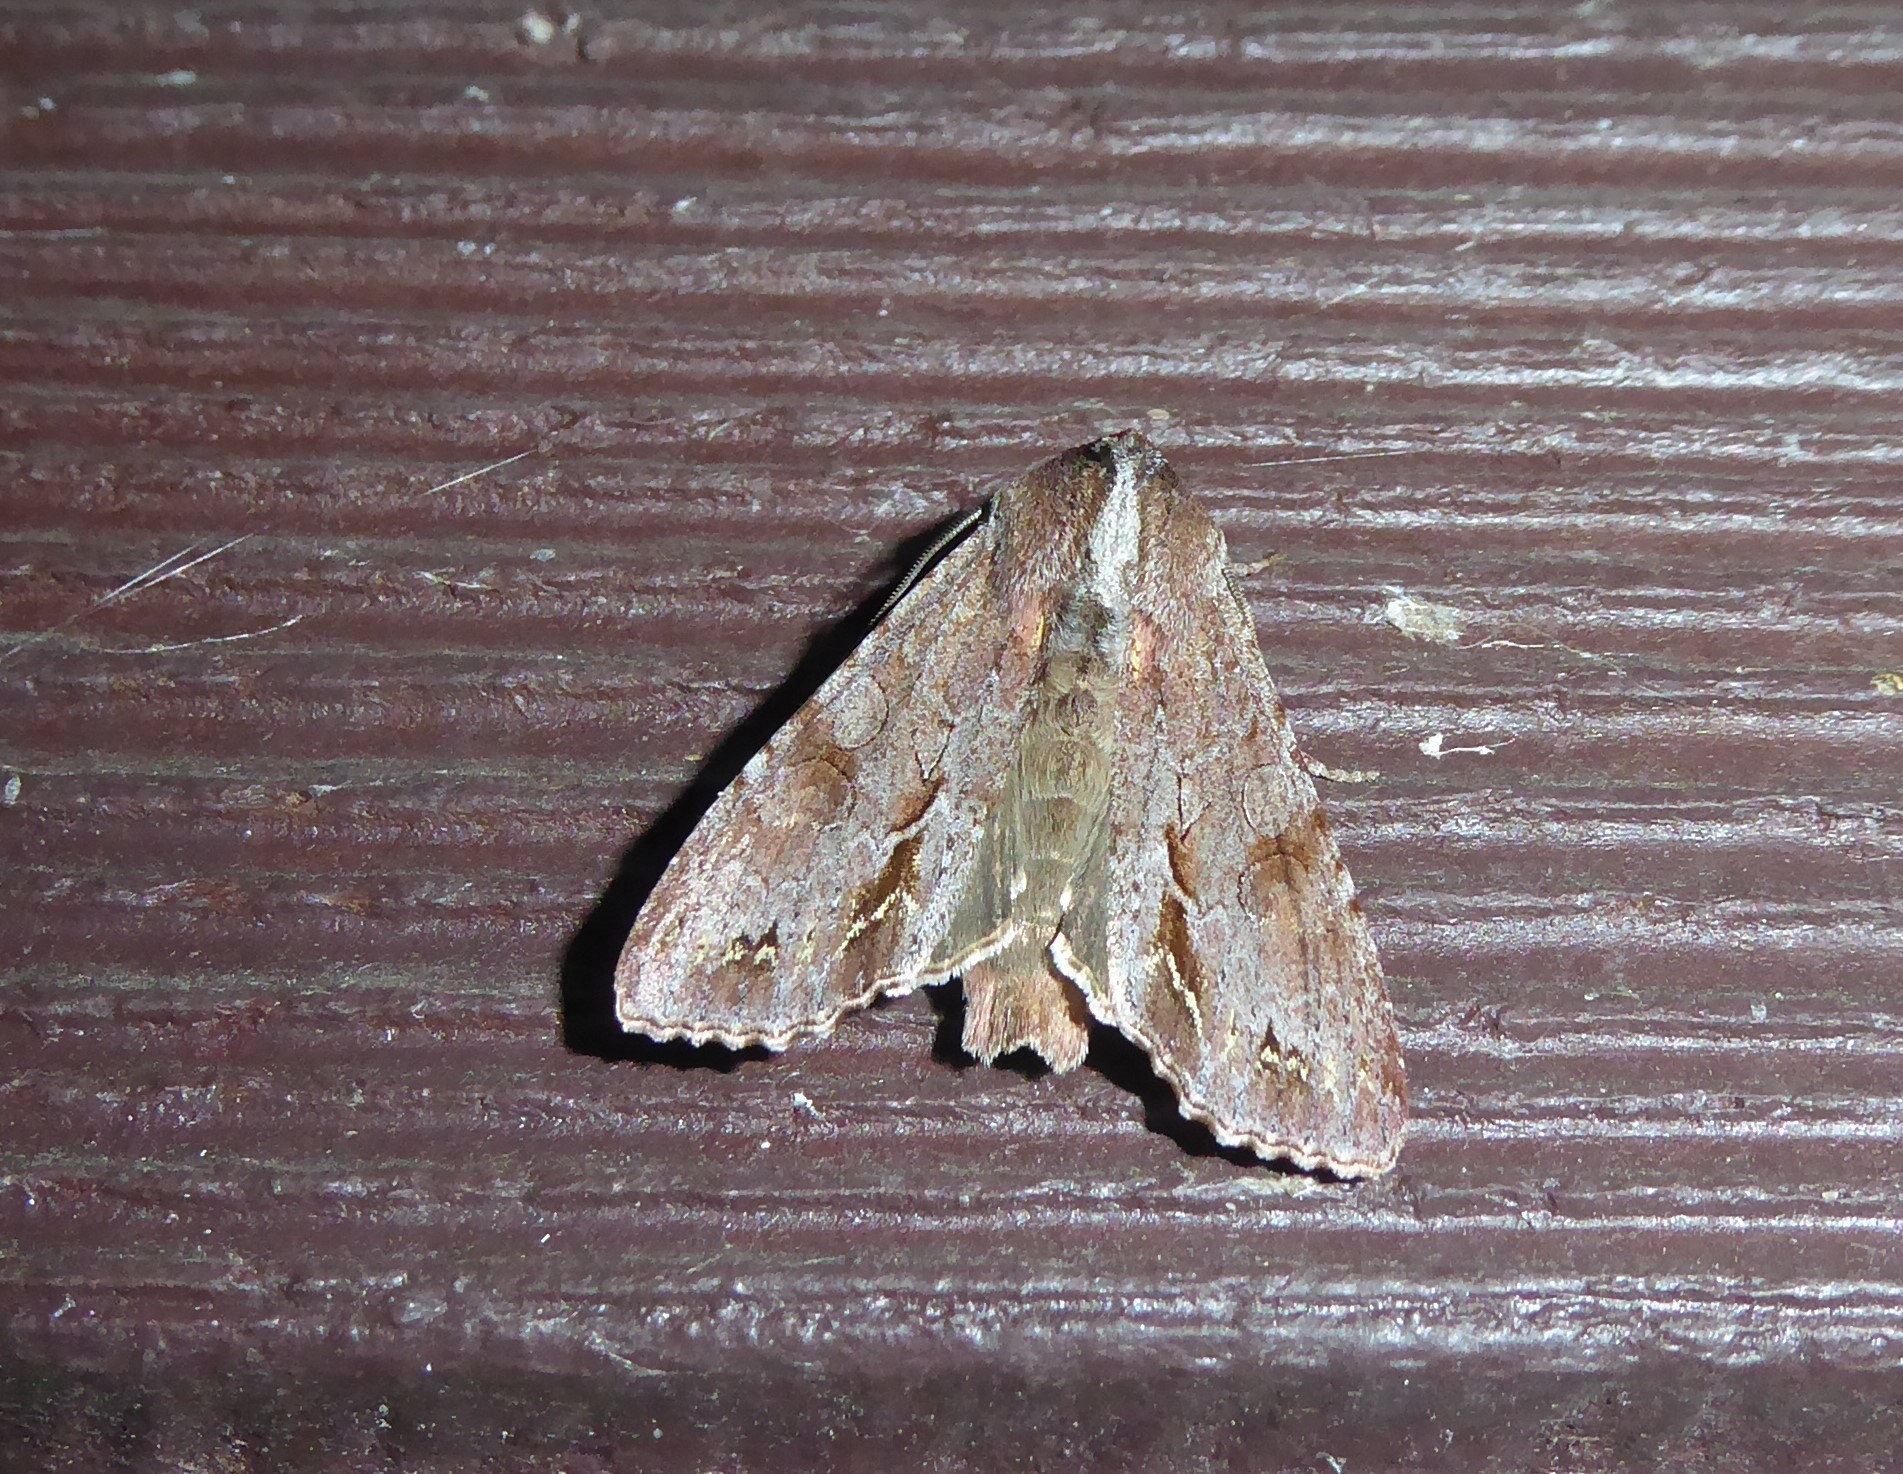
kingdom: Animalia
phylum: Arthropoda
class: Insecta
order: Lepidoptera
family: Noctuidae
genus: Ichneutica
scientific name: Ichneutica
